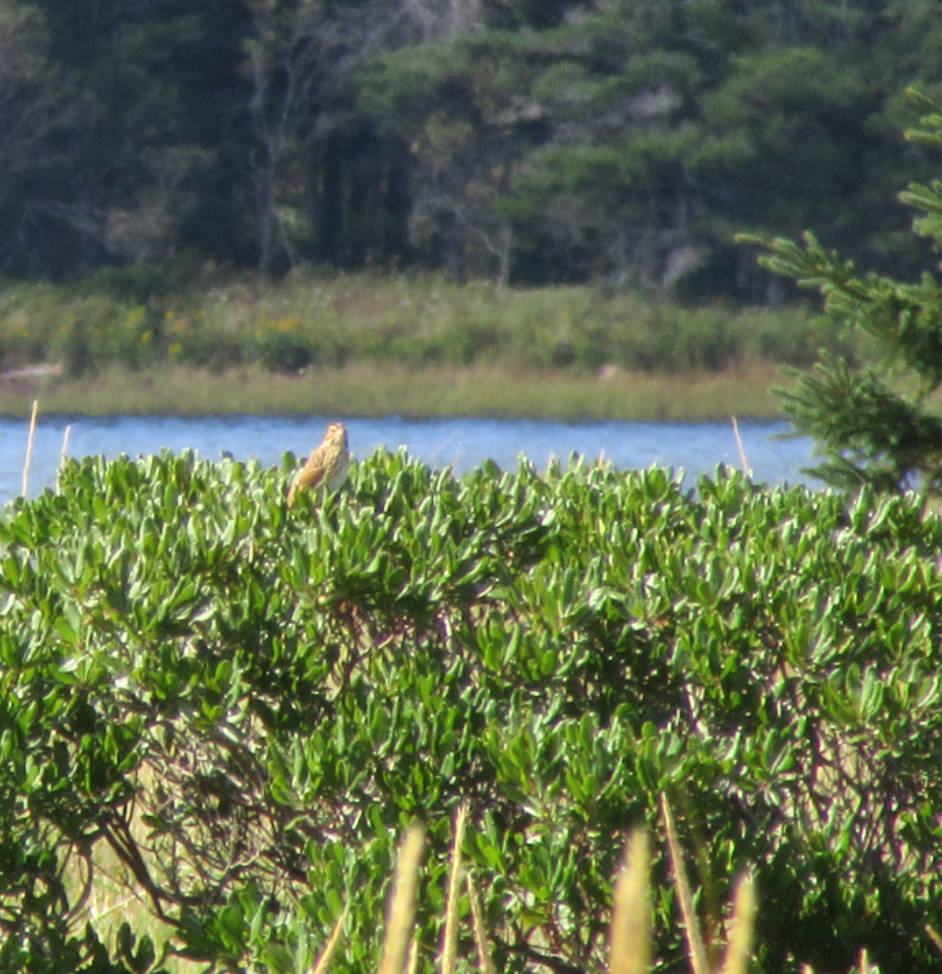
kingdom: Animalia
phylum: Chordata
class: Aves
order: Passeriformes
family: Passerellidae
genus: Passerculus
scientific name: Passerculus sandwichensis
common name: Savannah sparrow
